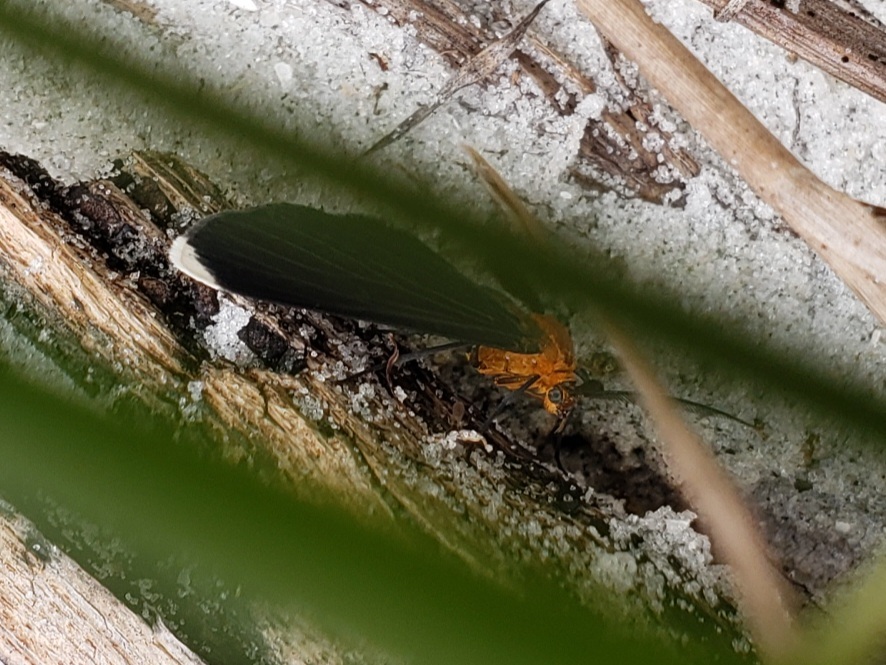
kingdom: Animalia
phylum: Arthropoda
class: Insecta
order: Lepidoptera
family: Geometridae
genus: Melanchroia
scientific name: Melanchroia chephise
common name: White-tipped black
